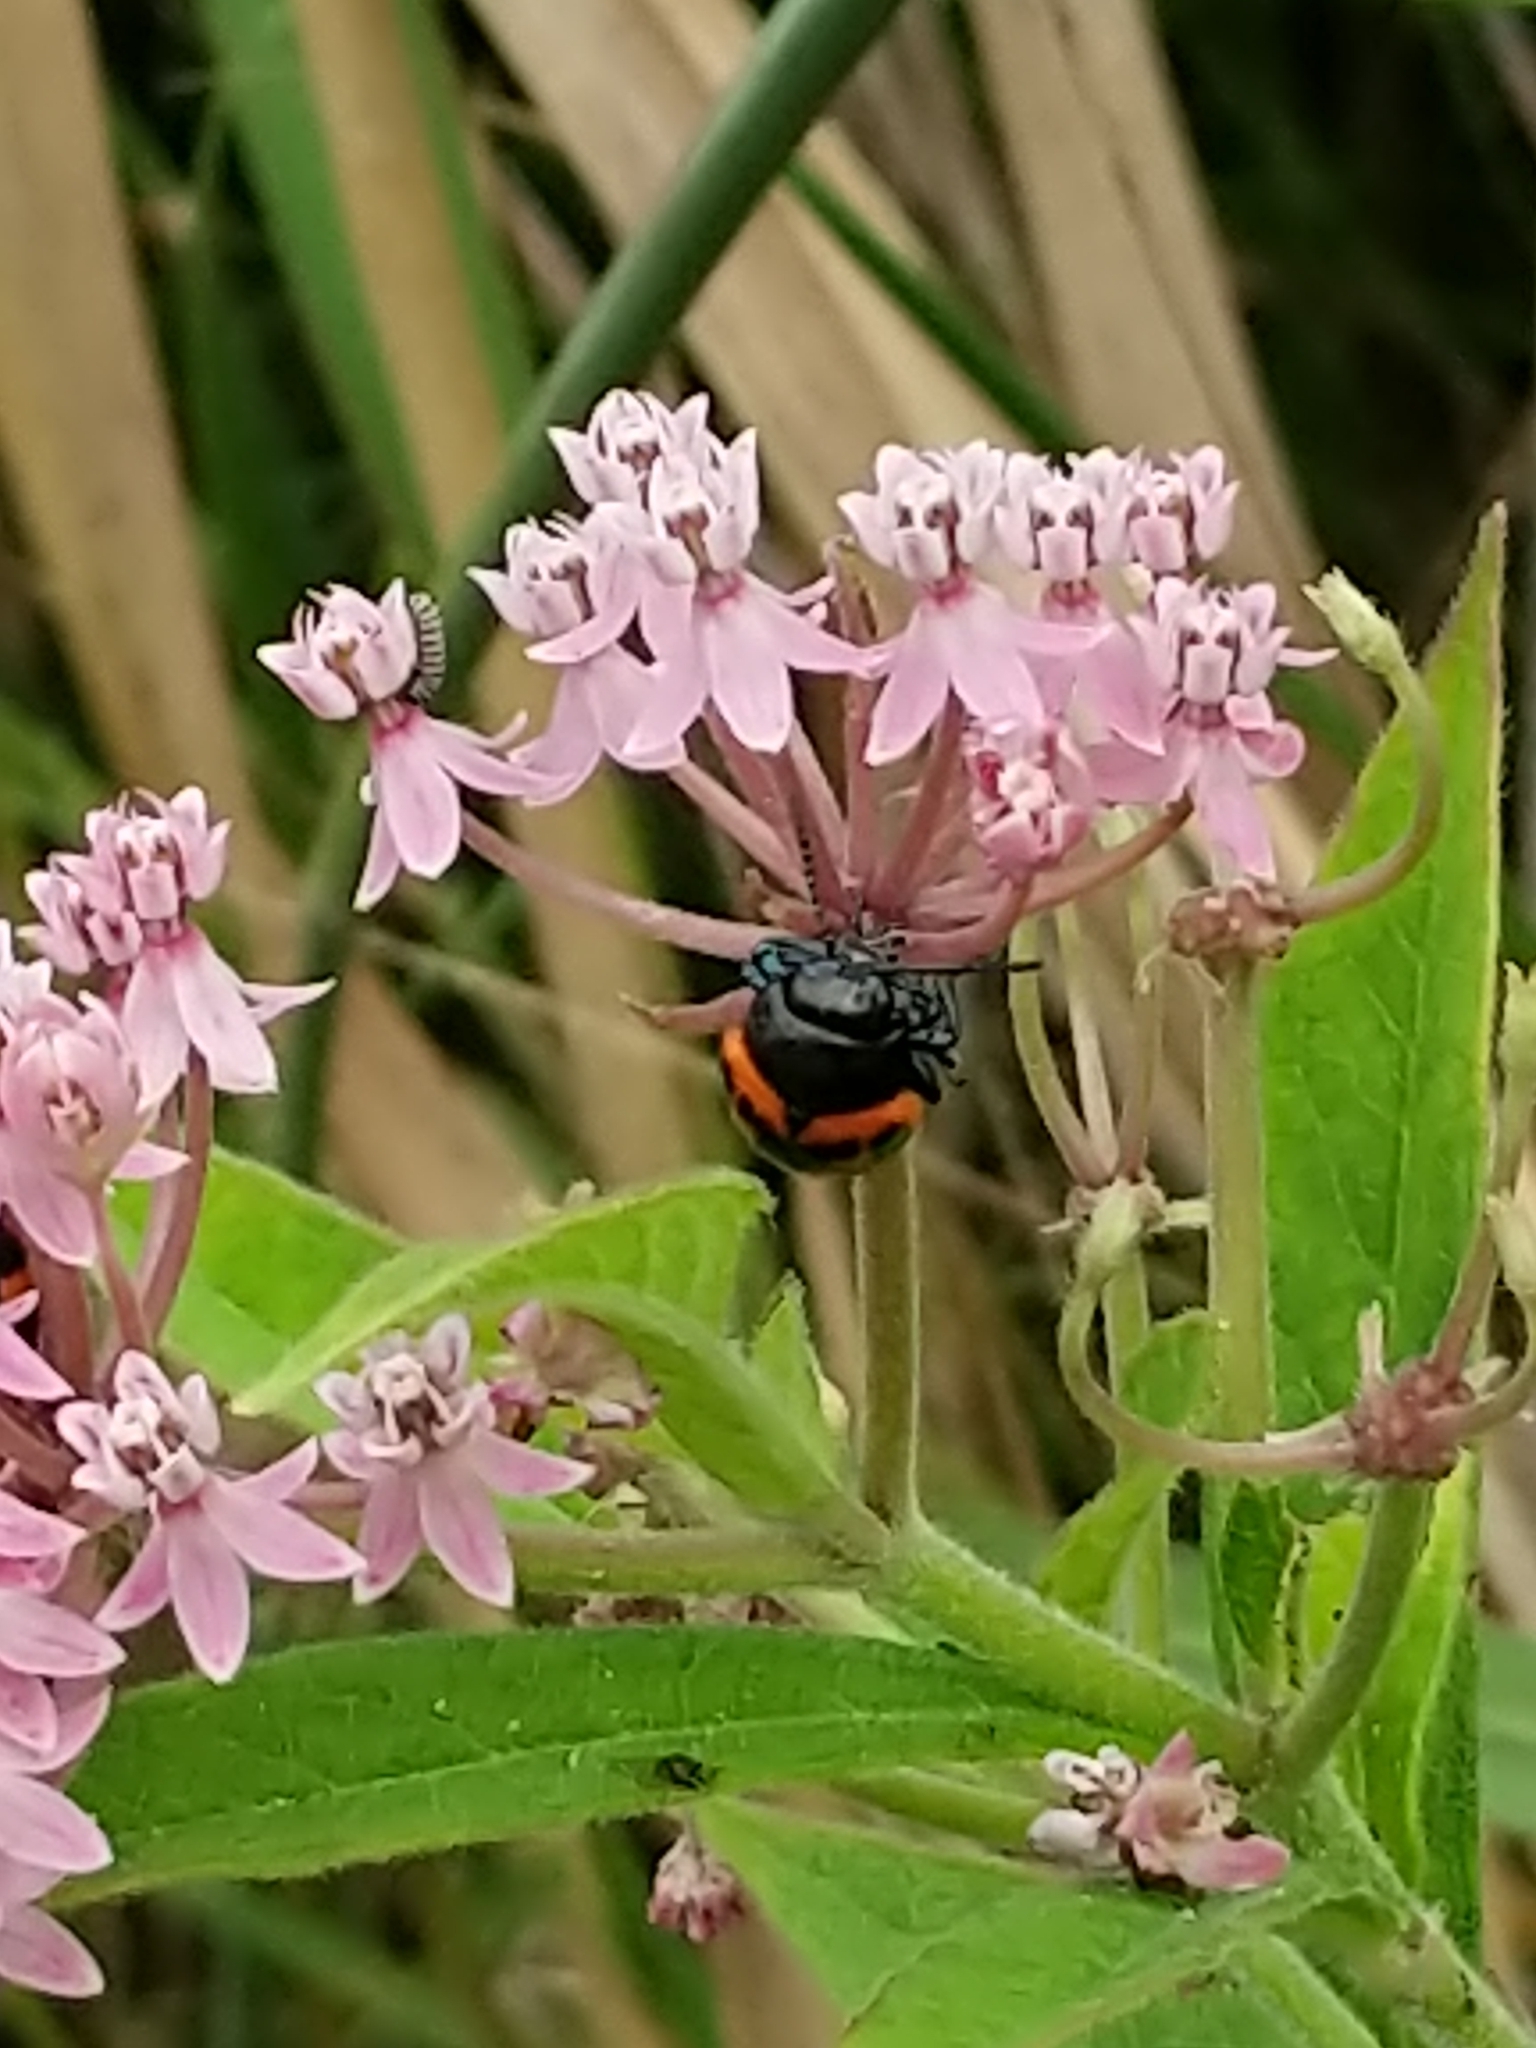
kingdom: Animalia
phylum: Arthropoda
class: Insecta
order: Coleoptera
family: Chrysomelidae
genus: Labidomera
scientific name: Labidomera clivicollis
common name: Swamp milkweed leaf beetle
